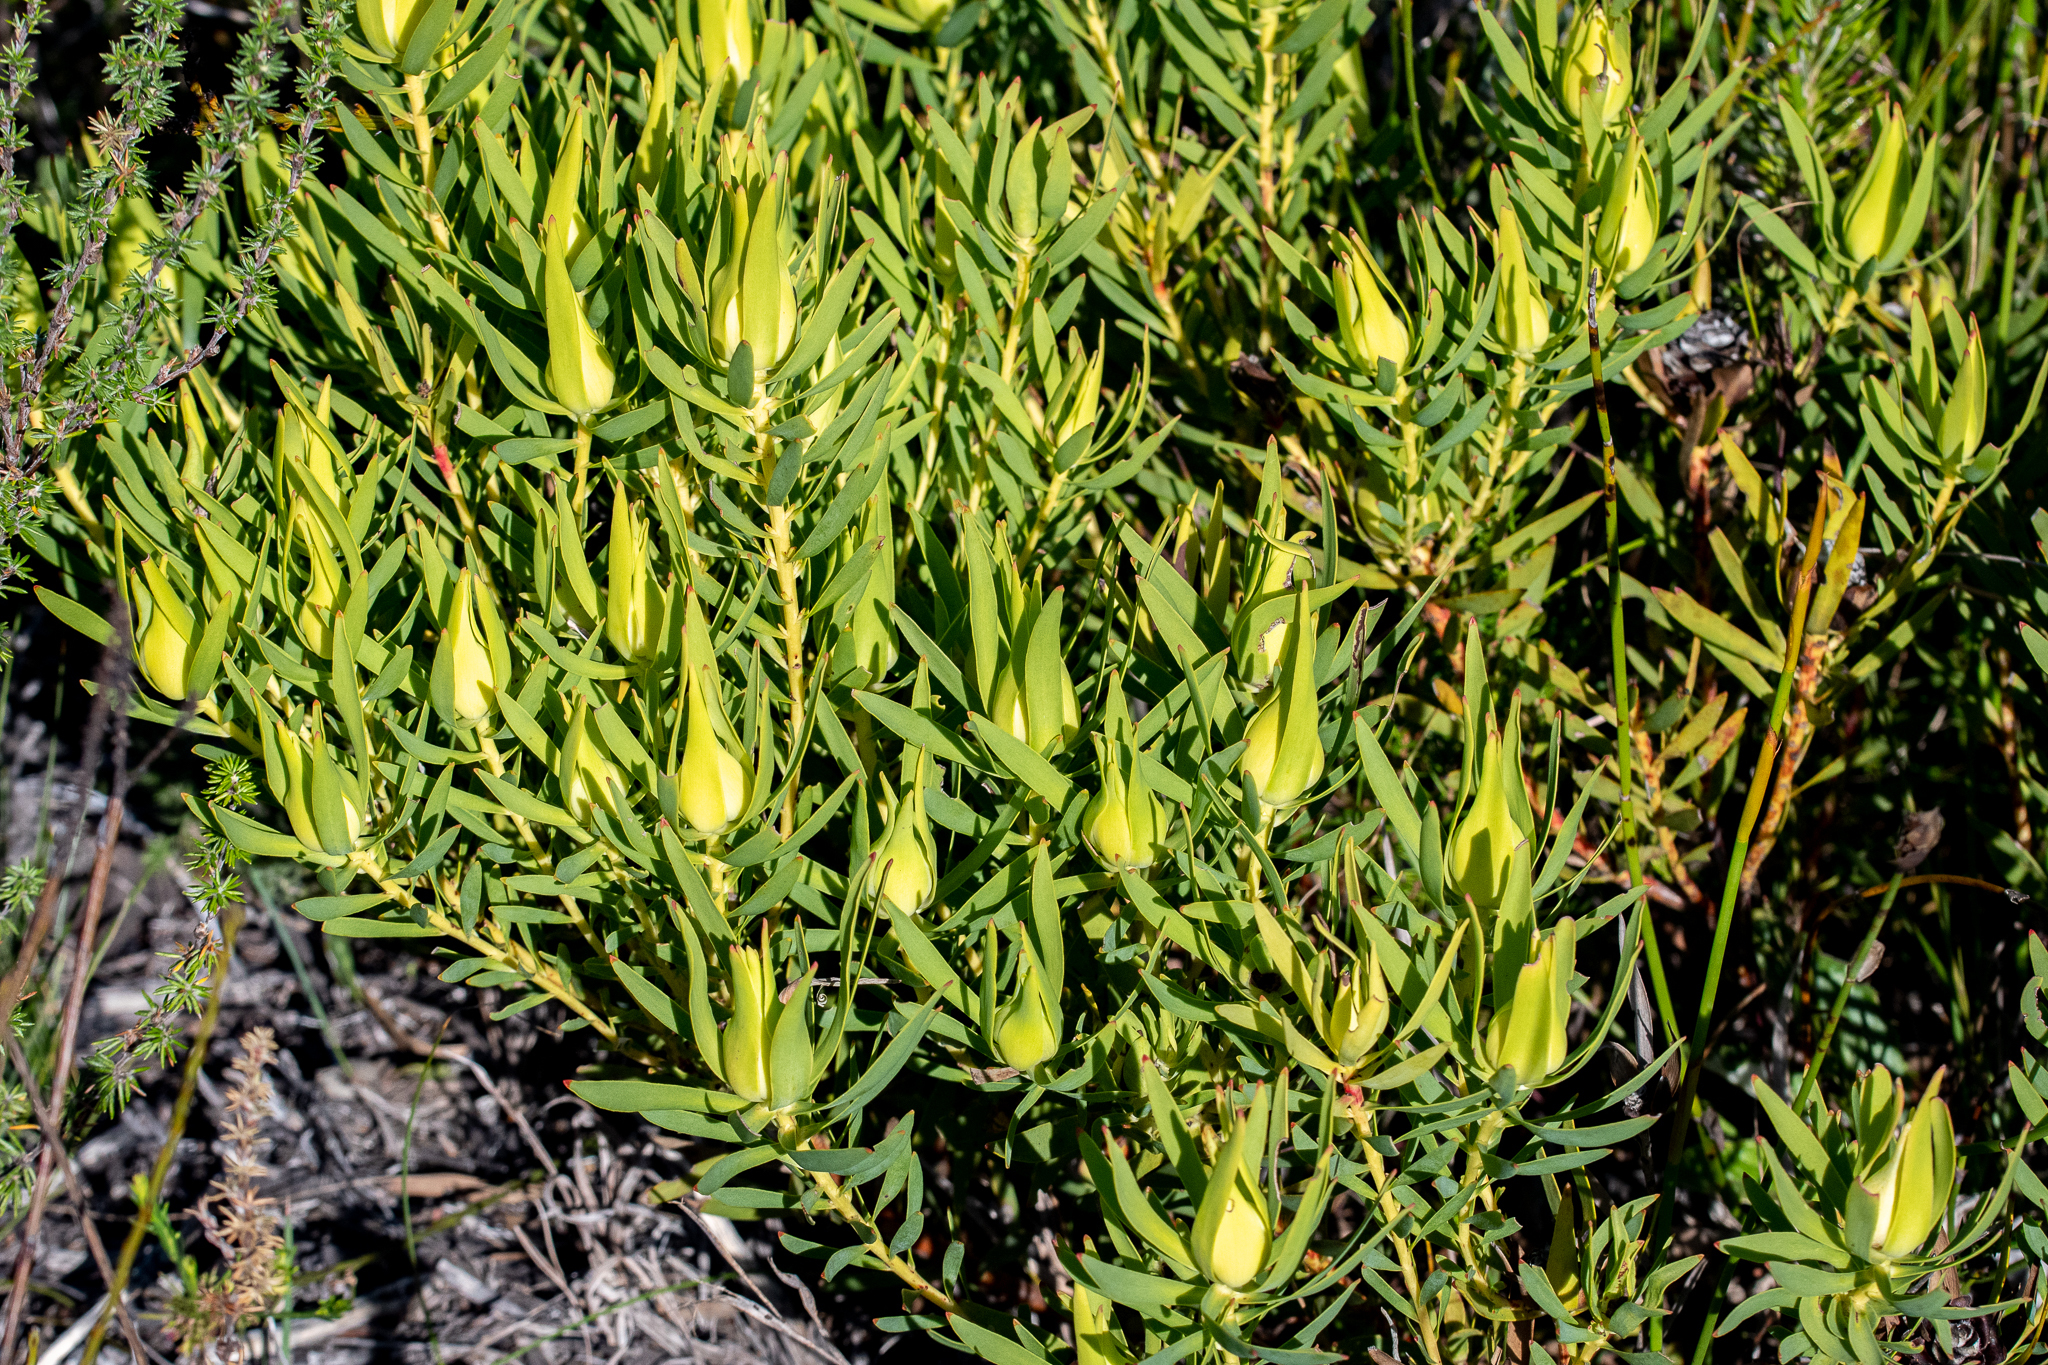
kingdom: Plantae
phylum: Tracheophyta
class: Magnoliopsida
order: Proteales
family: Proteaceae
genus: Leucadendron
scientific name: Leucadendron salignum
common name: Common sunshine conebush
